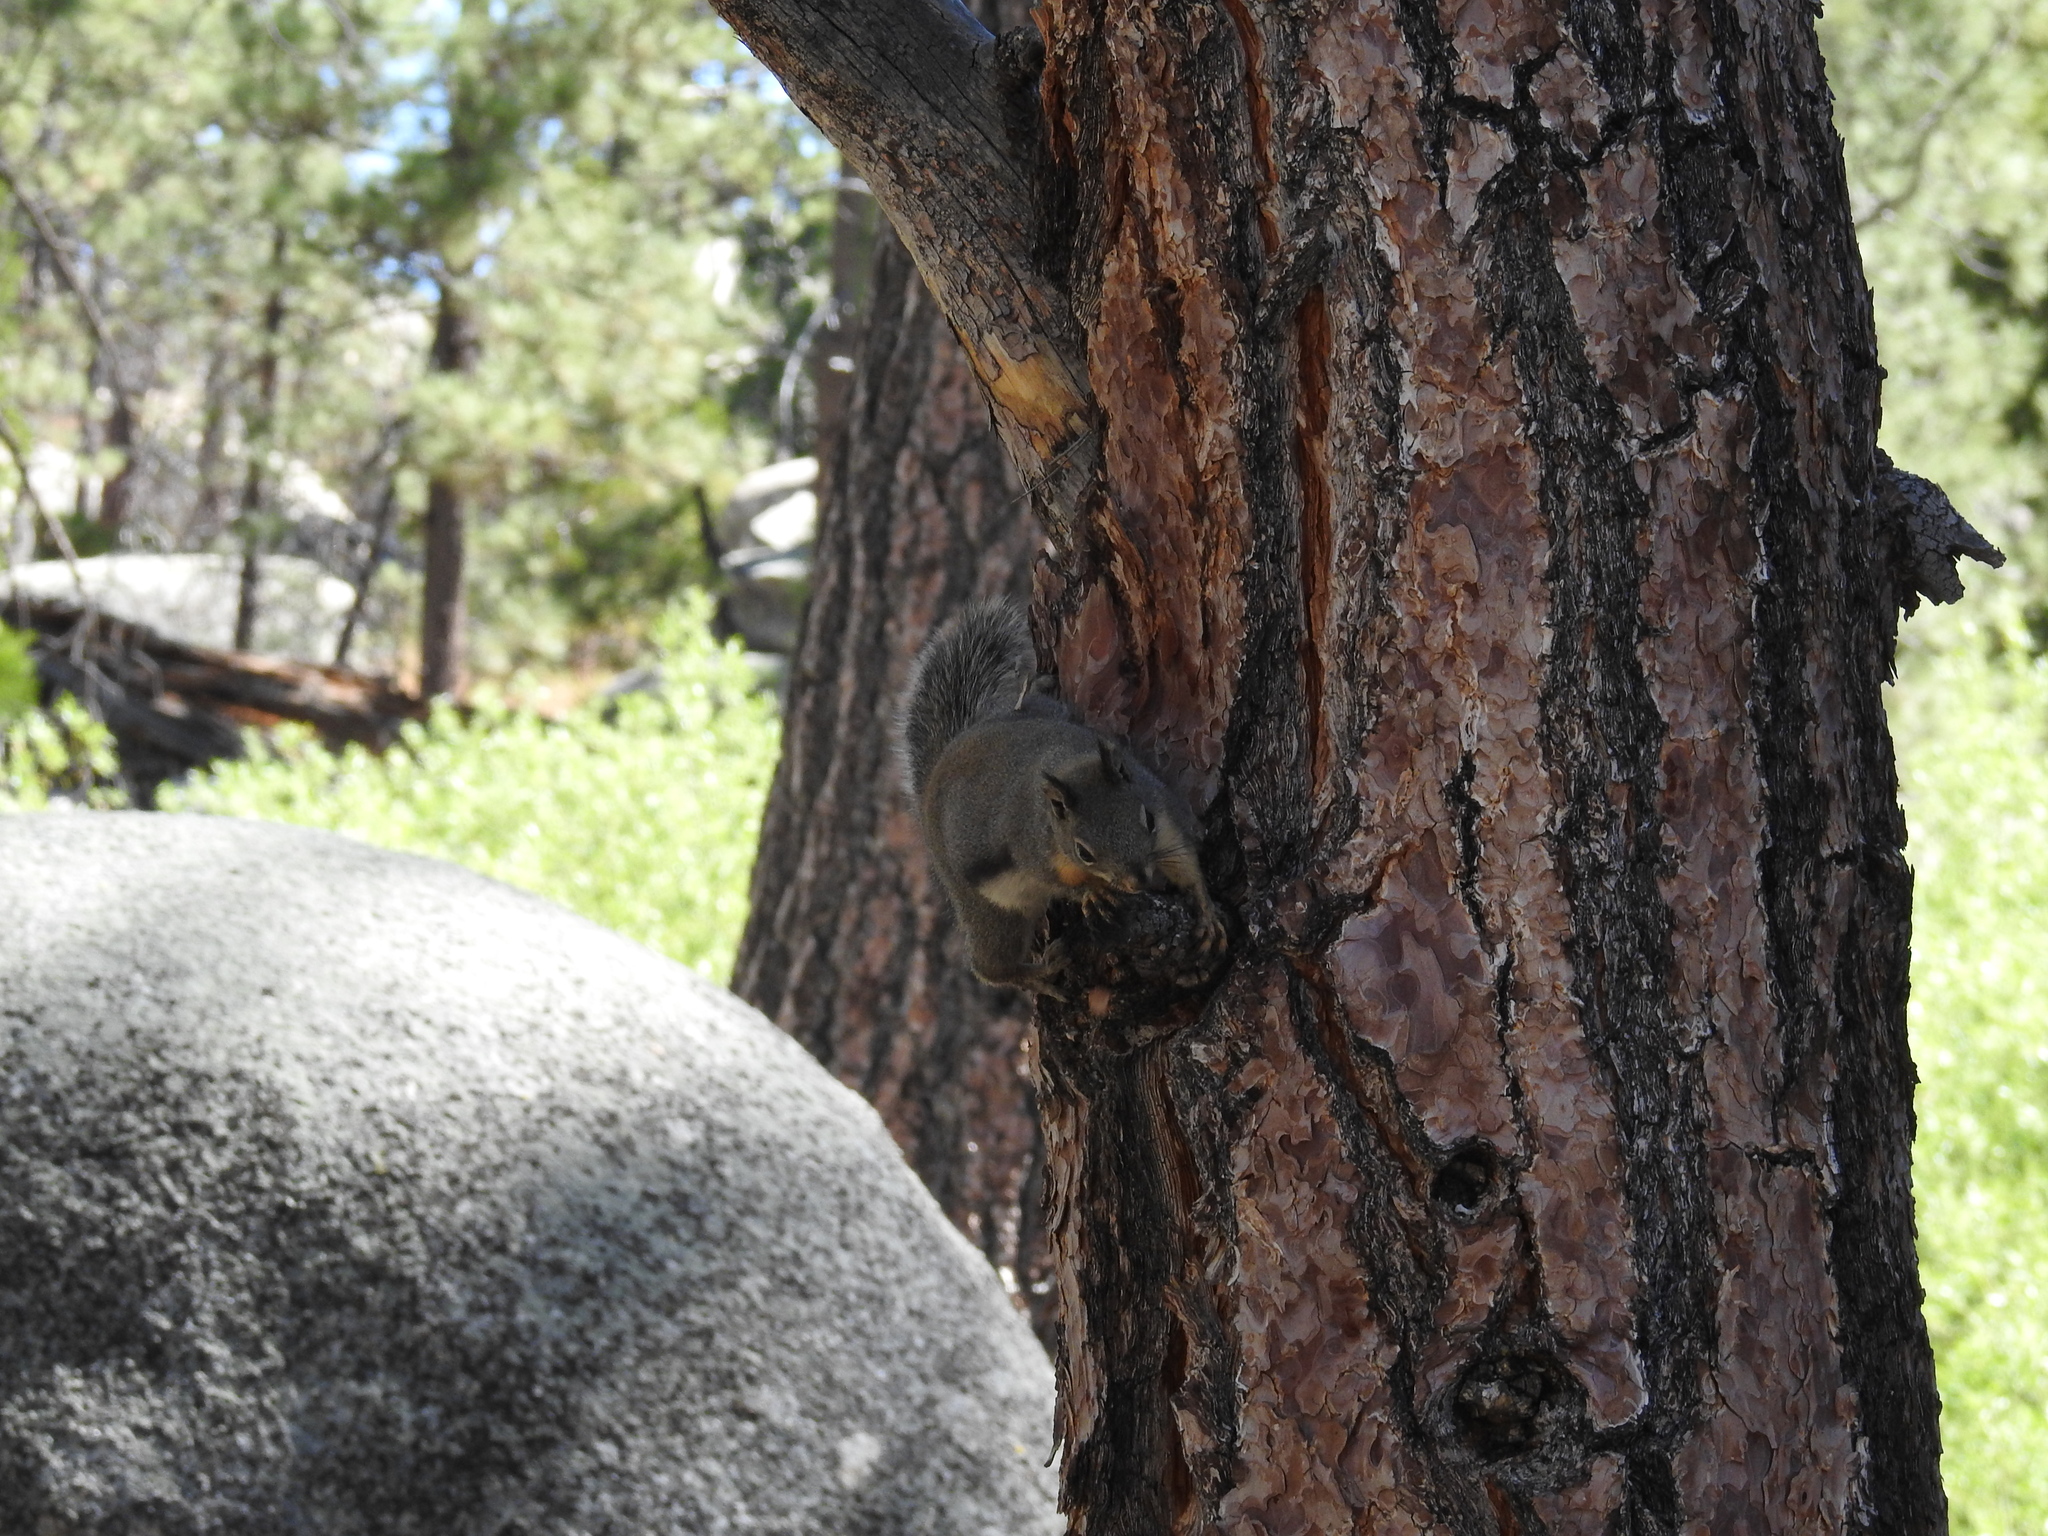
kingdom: Animalia
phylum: Chordata
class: Mammalia
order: Rodentia
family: Sciuridae
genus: Tamiasciurus
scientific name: Tamiasciurus douglasii
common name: Douglas's squirrel
